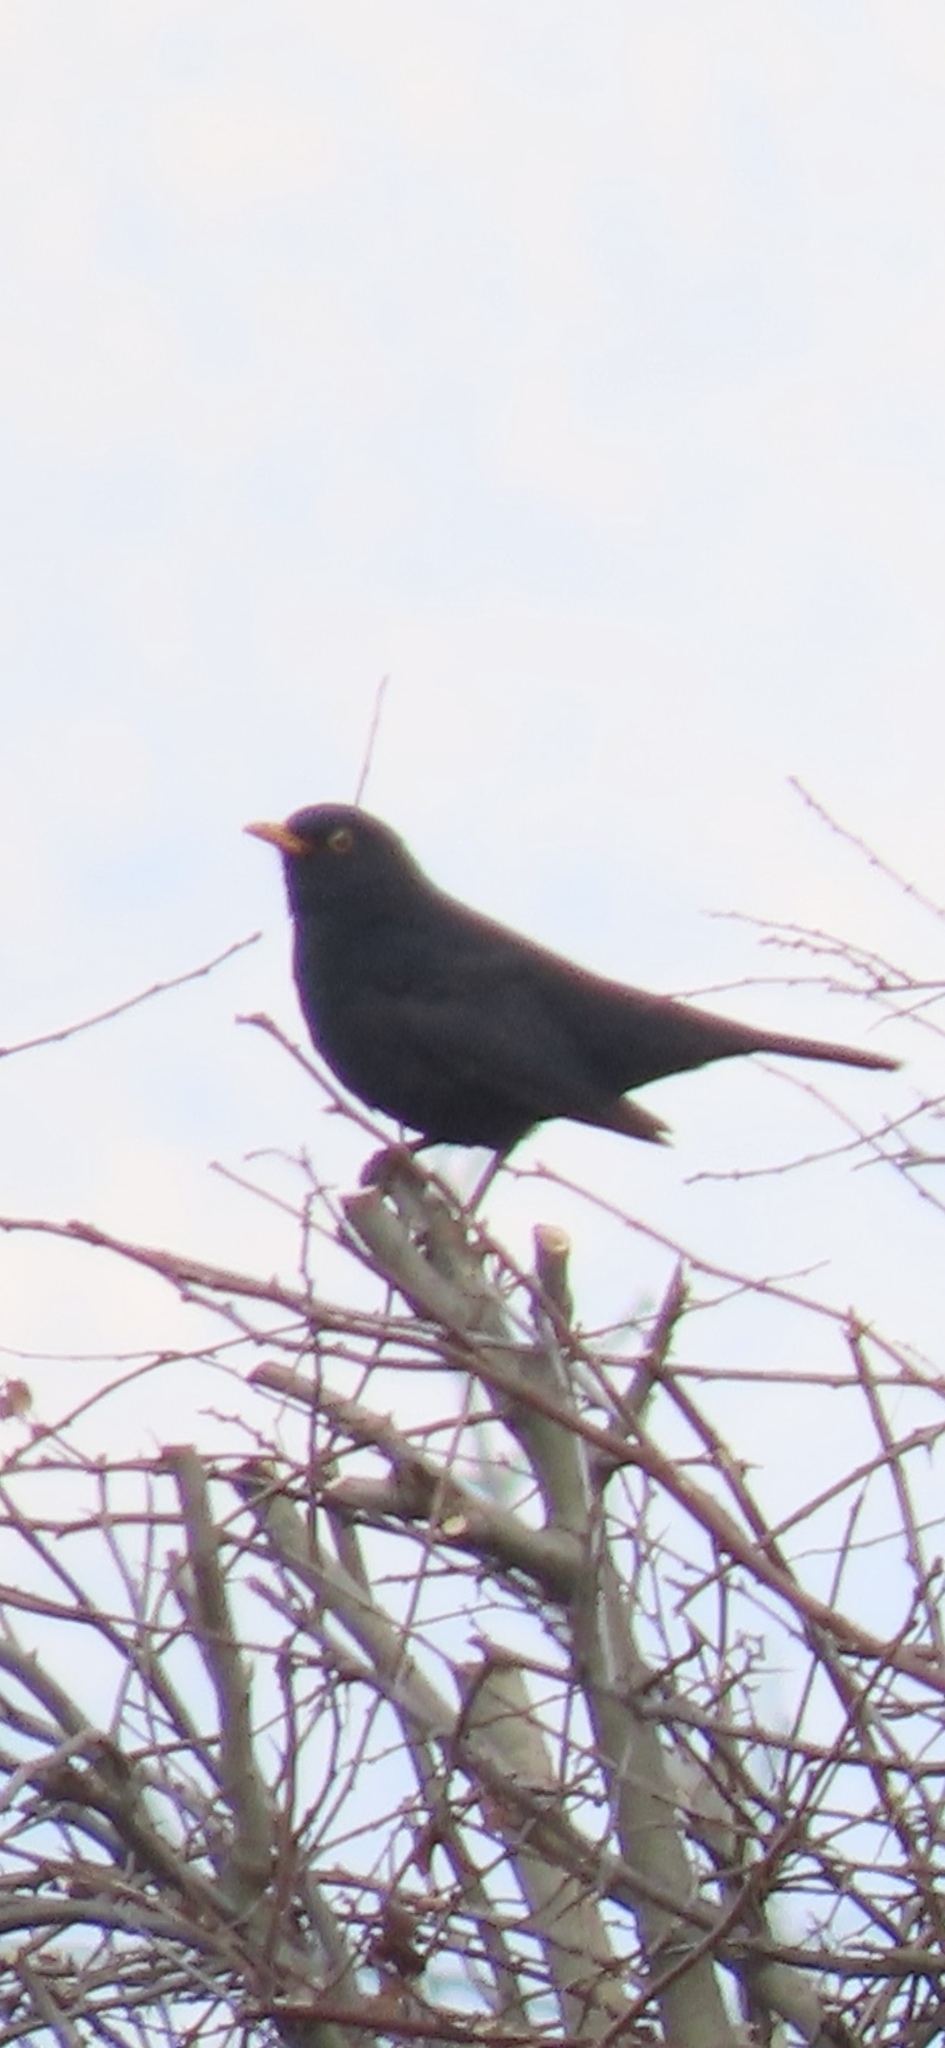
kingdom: Animalia
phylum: Chordata
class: Aves
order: Passeriformes
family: Turdidae
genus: Turdus
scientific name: Turdus merula
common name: Common blackbird
